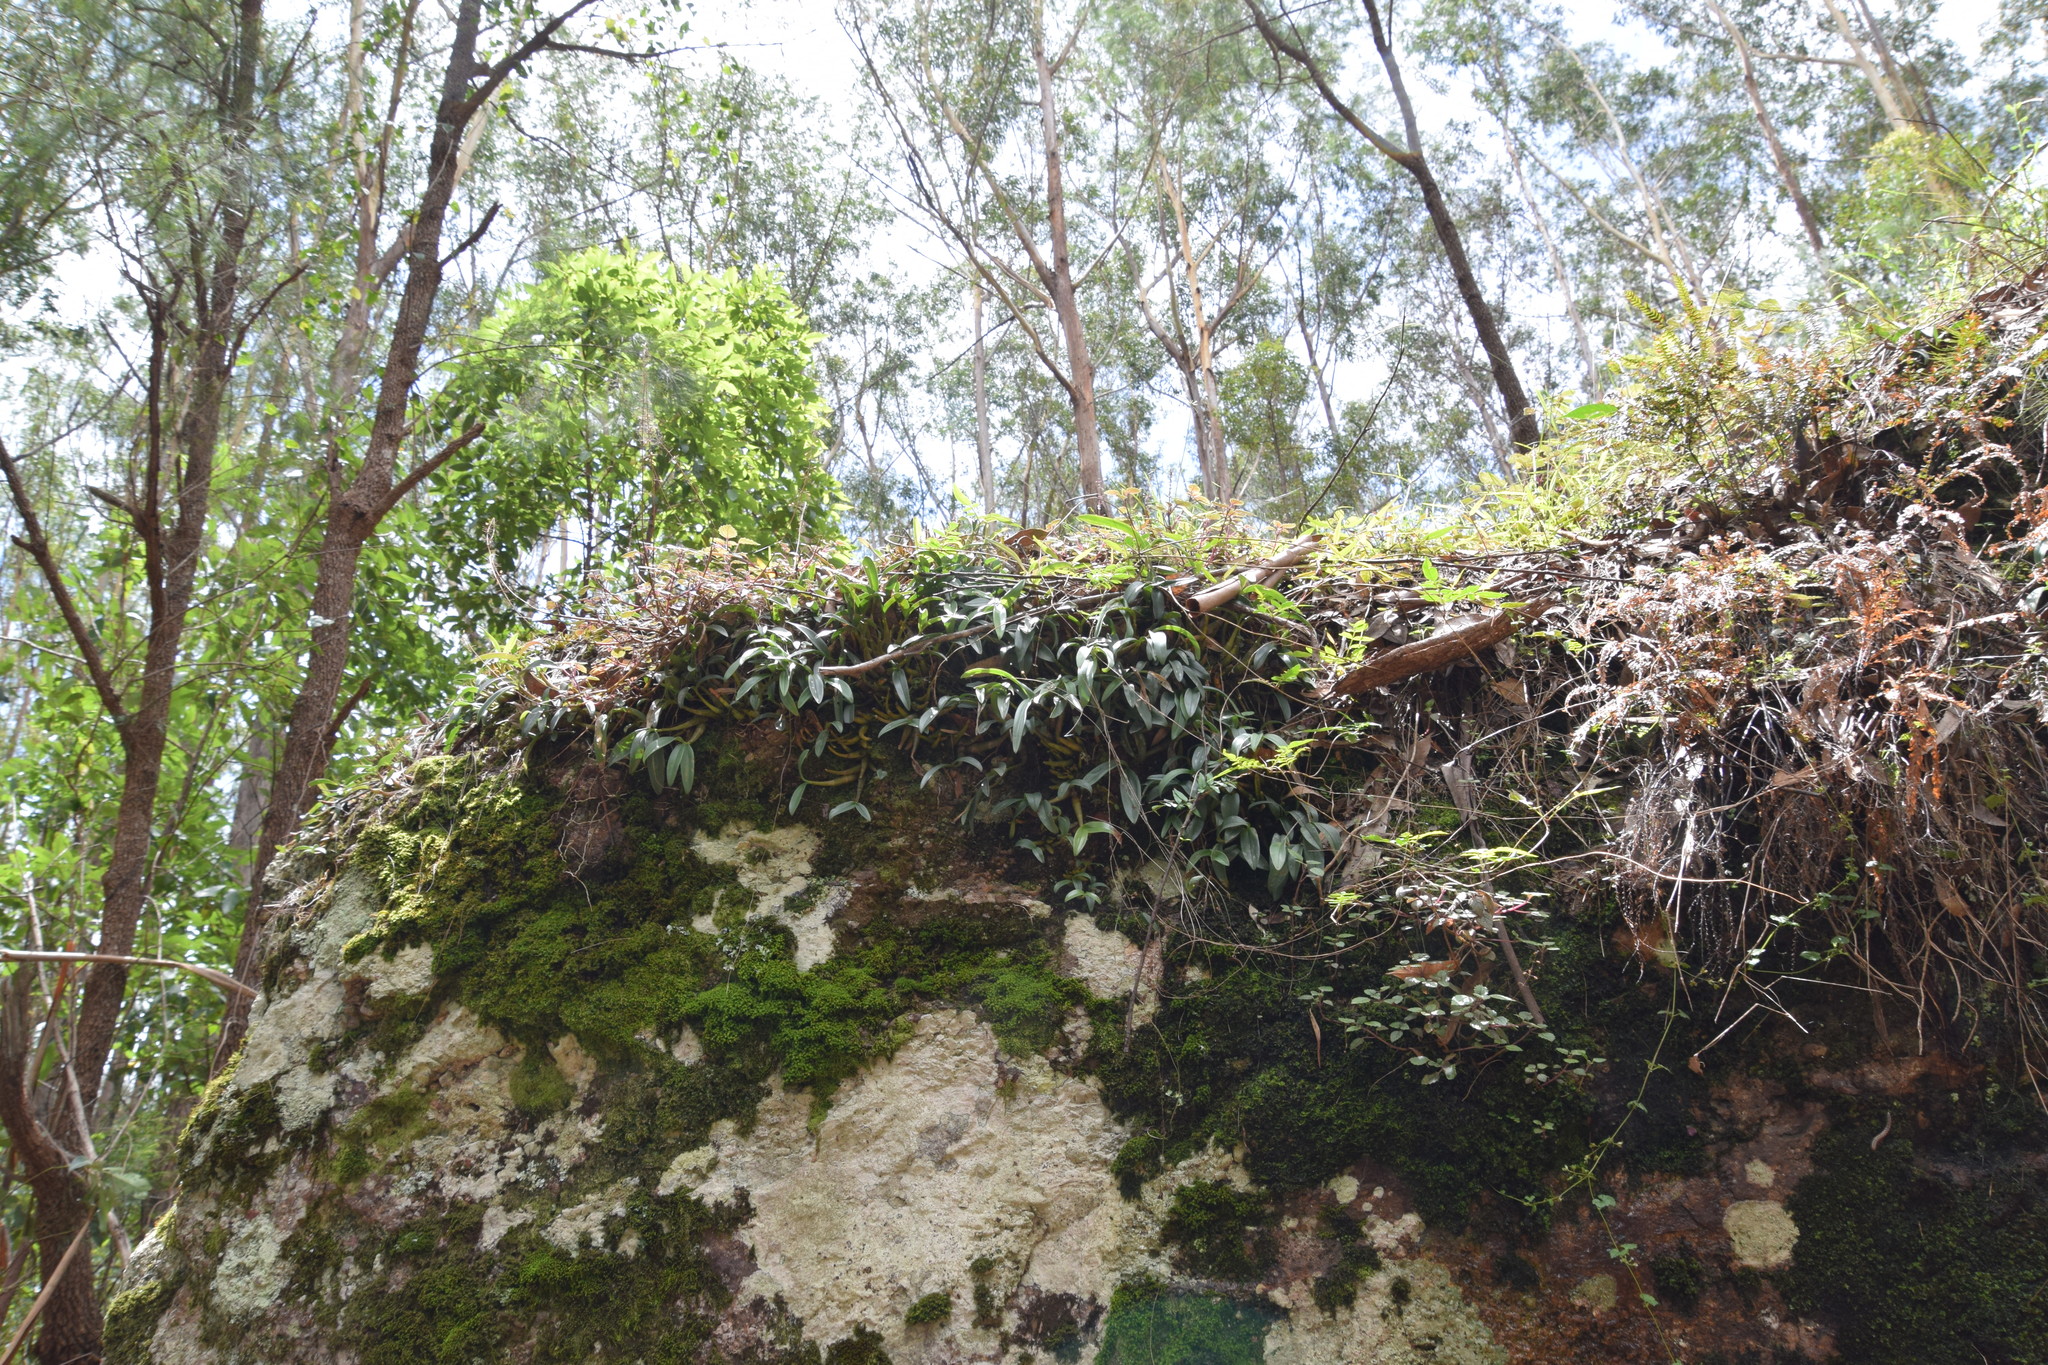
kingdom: Plantae
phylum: Tracheophyta
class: Liliopsida
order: Asparagales
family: Orchidaceae
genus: Dendrobium
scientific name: Dendrobium kingianum
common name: Pink rock orchid
